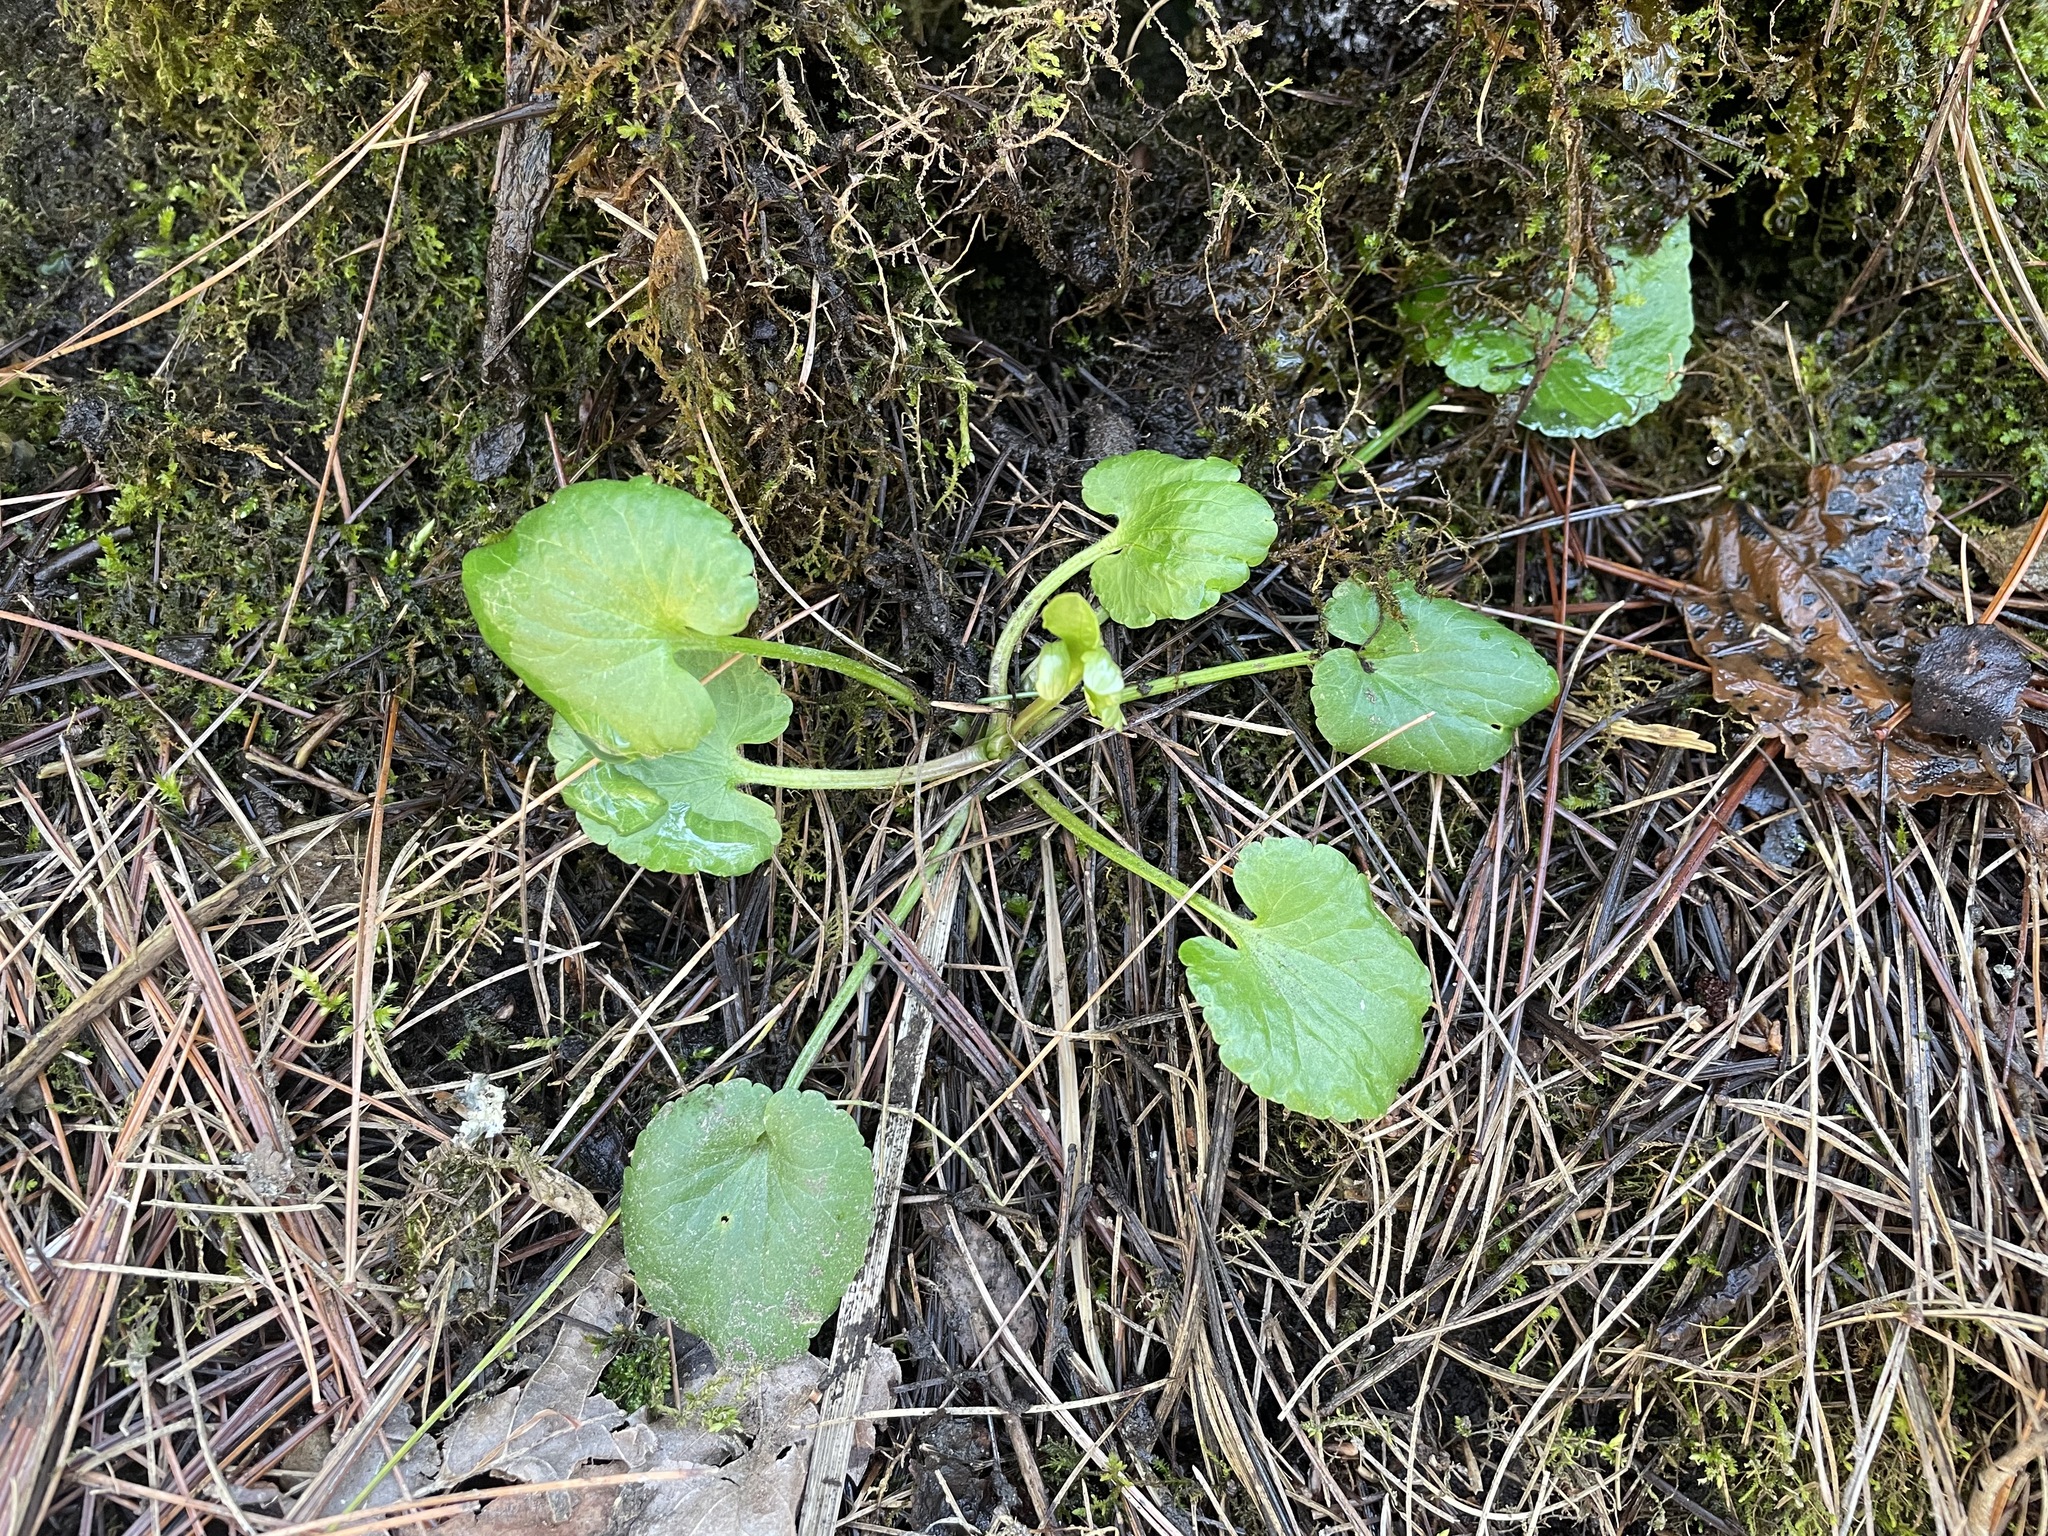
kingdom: Plantae
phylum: Tracheophyta
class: Magnoliopsida
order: Ranunculales
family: Ranunculaceae
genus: Ranunculus
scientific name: Ranunculus abortivus
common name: Early wood buttercup
